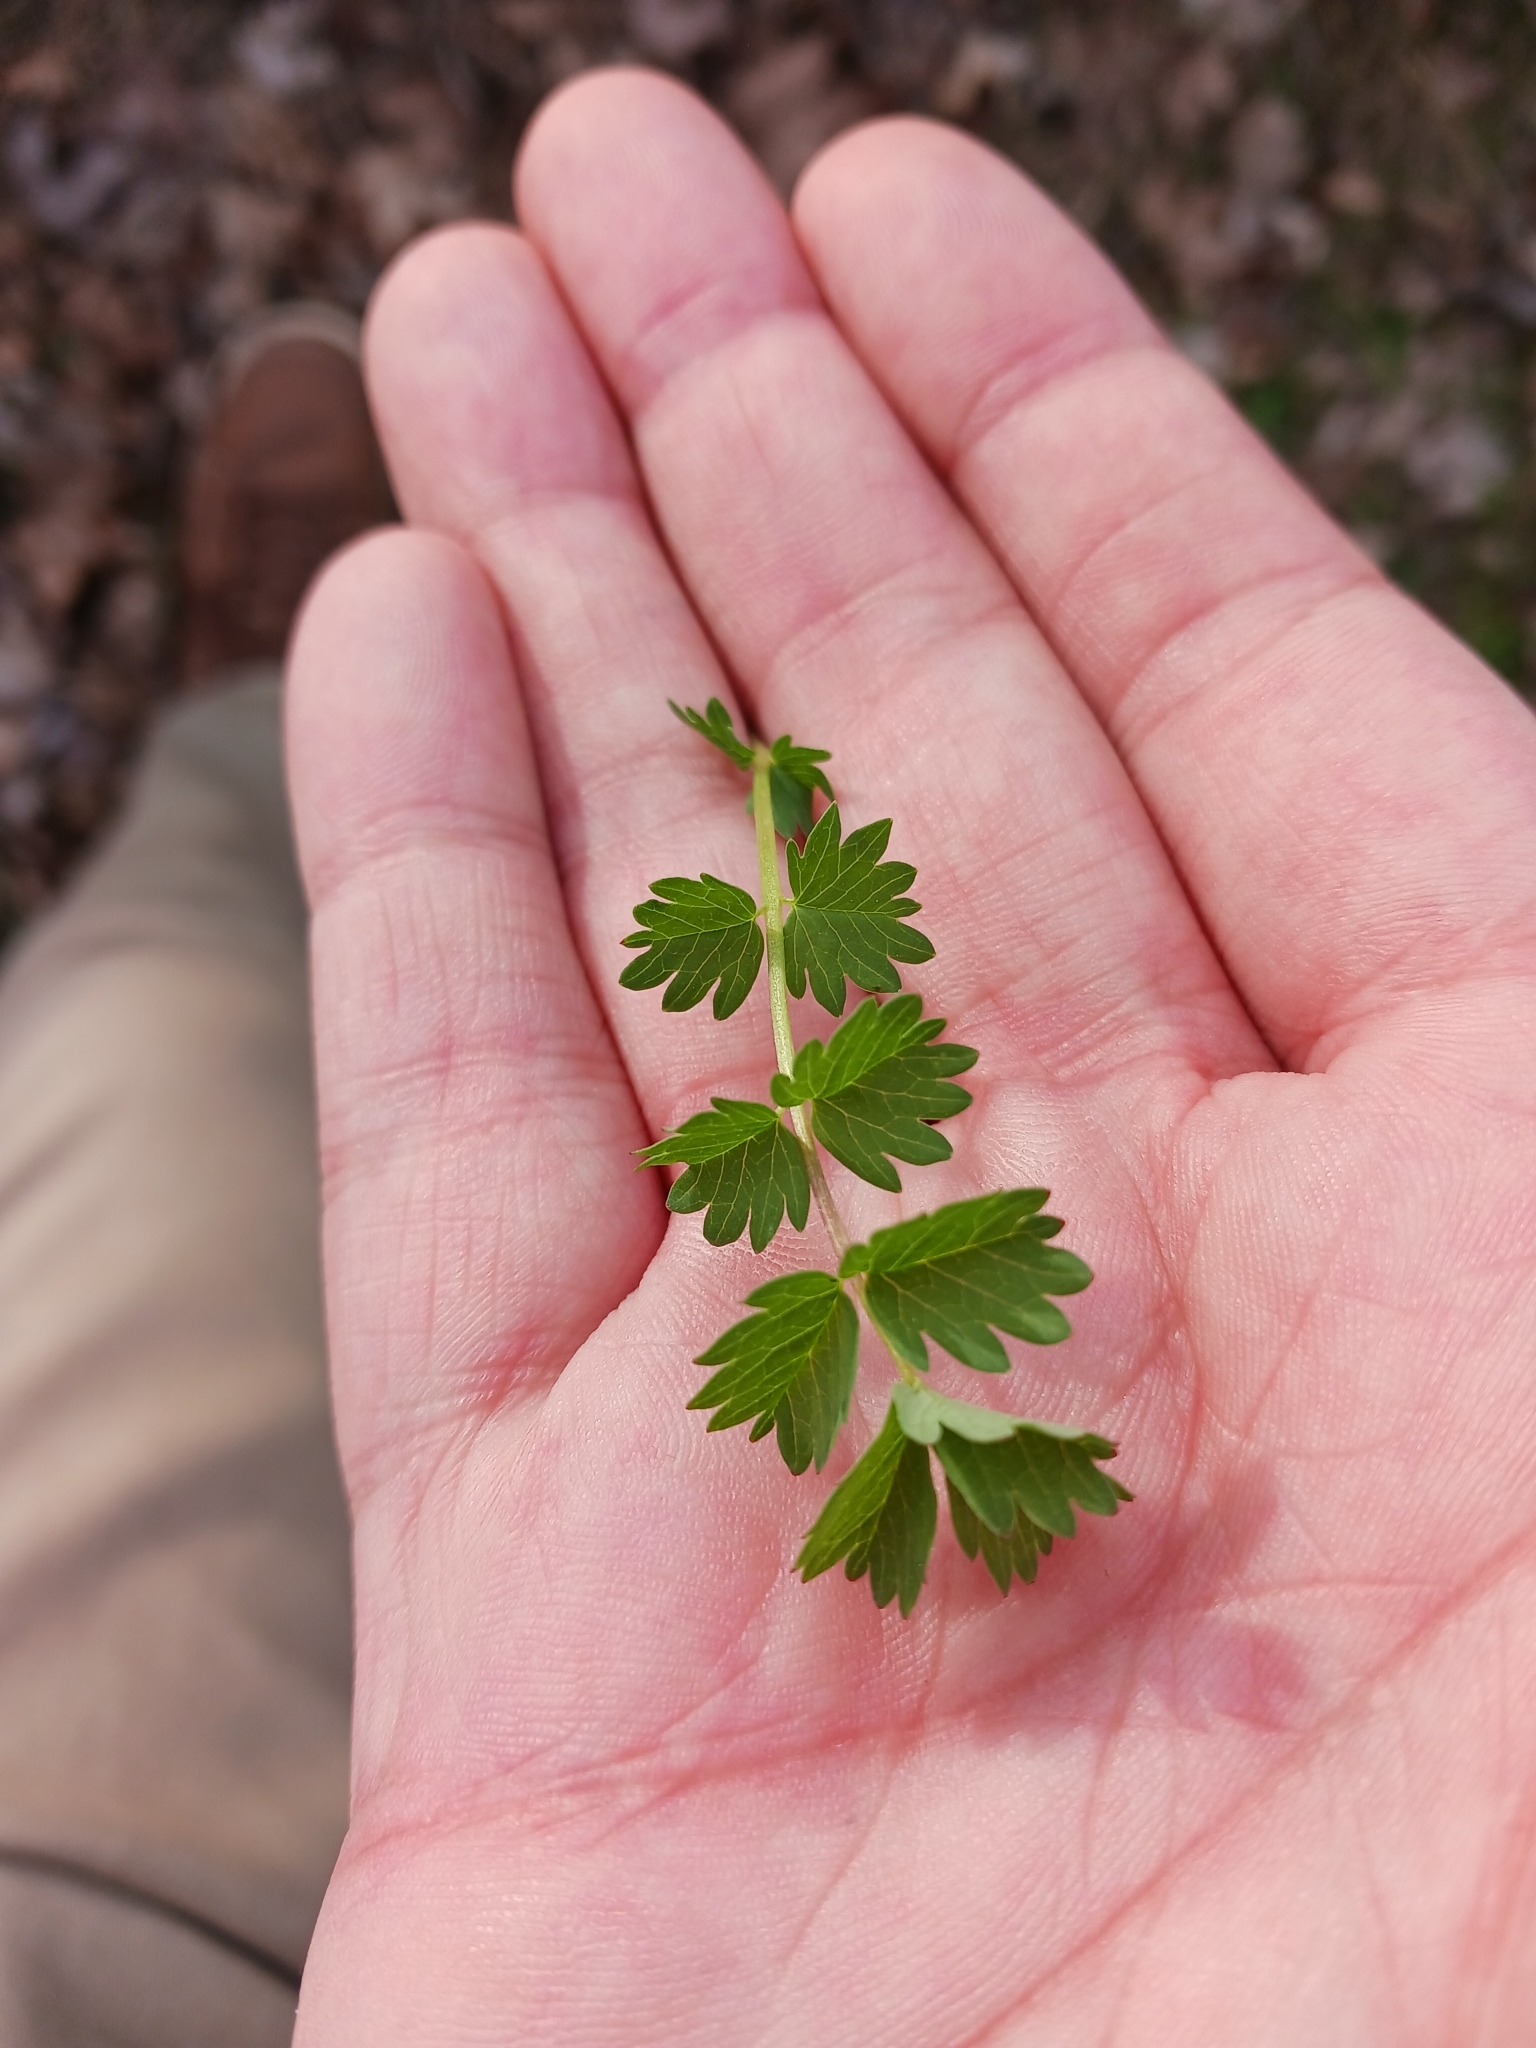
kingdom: Plantae
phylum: Tracheophyta
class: Magnoliopsida
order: Rosales
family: Rosaceae
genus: Poterium
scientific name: Poterium sanguisorba
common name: Salad burnet
